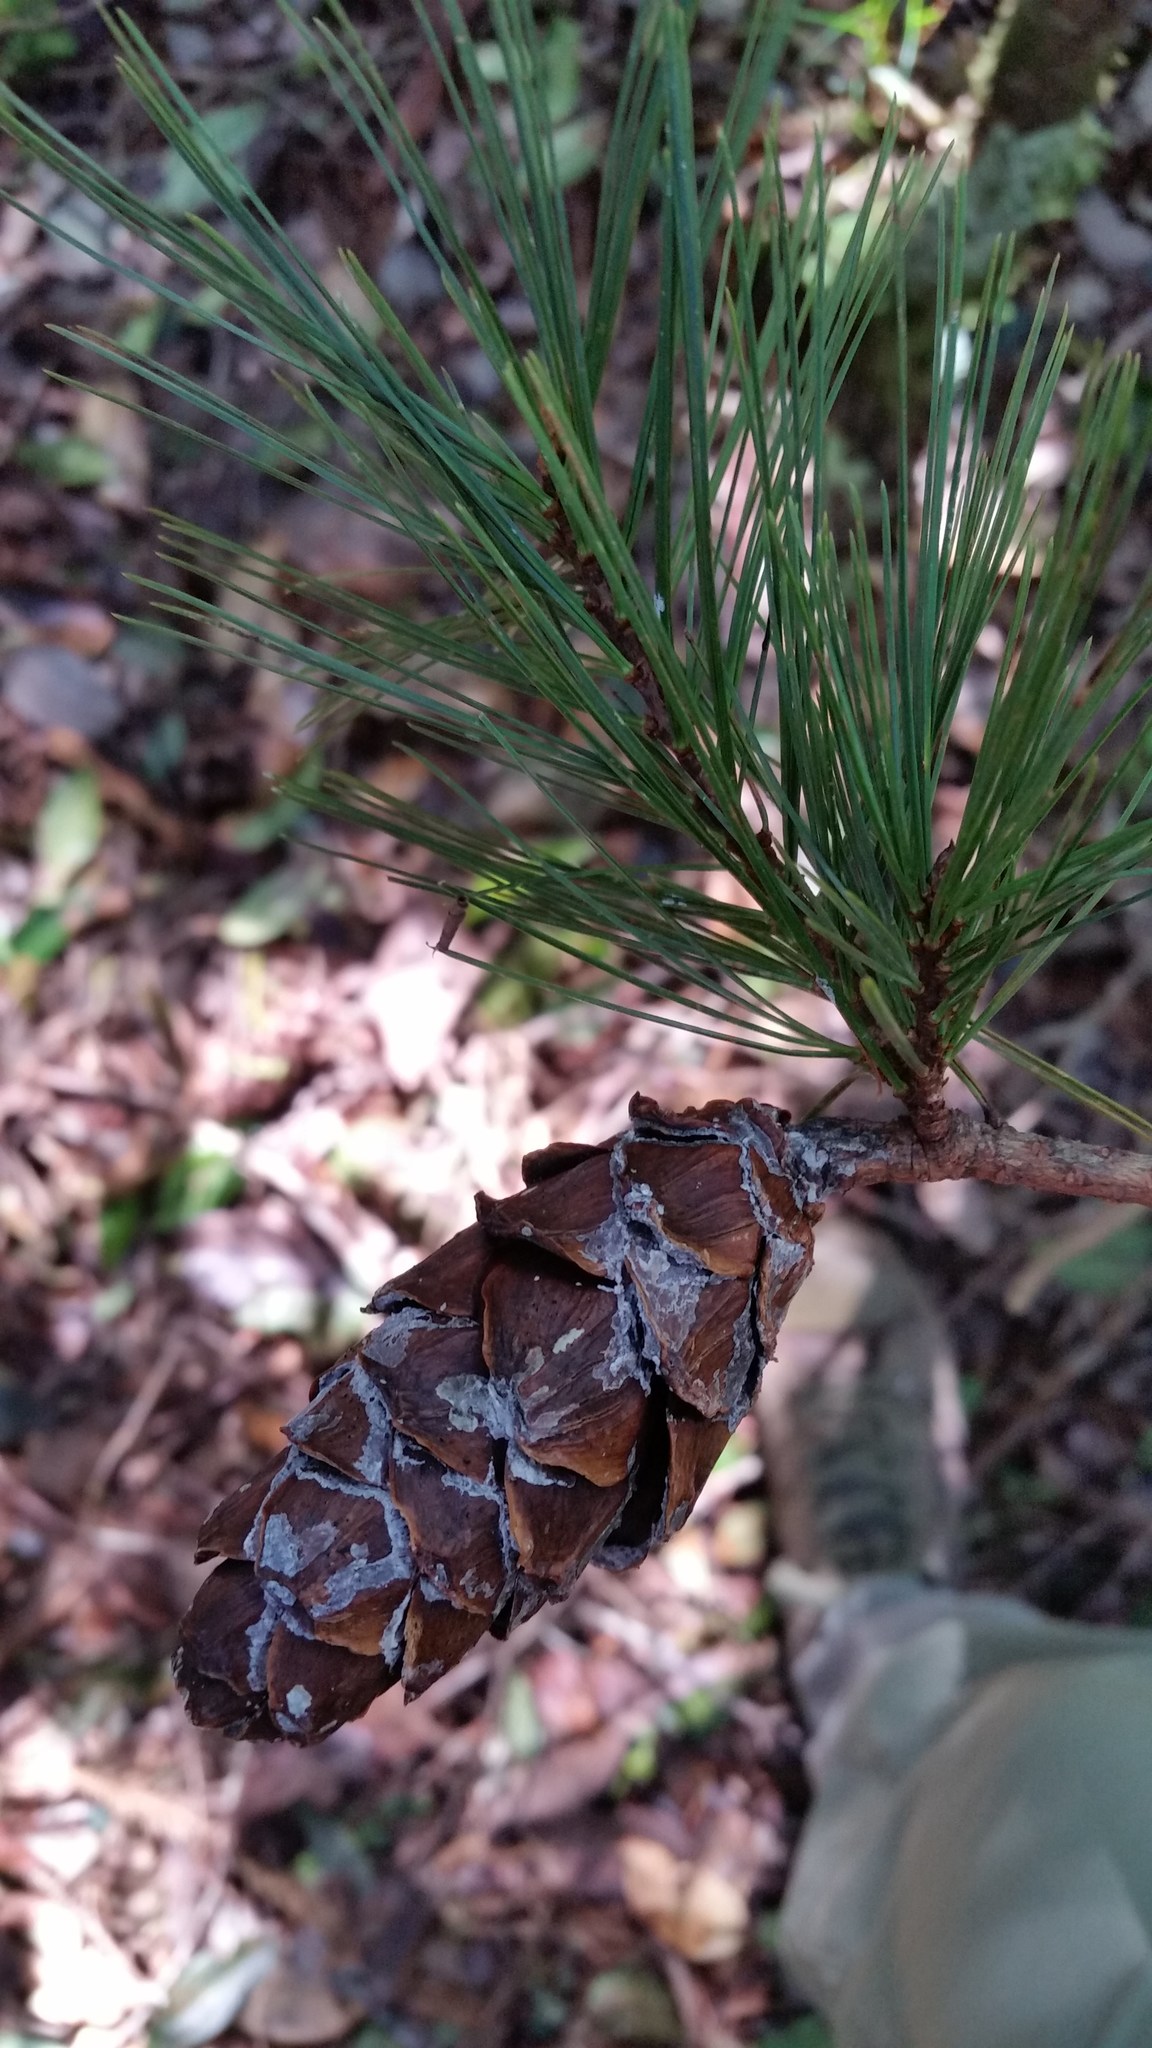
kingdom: Plantae
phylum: Tracheophyta
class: Pinopsida
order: Pinales
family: Pinaceae
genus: Pinus
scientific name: Pinus dalatensis
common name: Dalat pine
